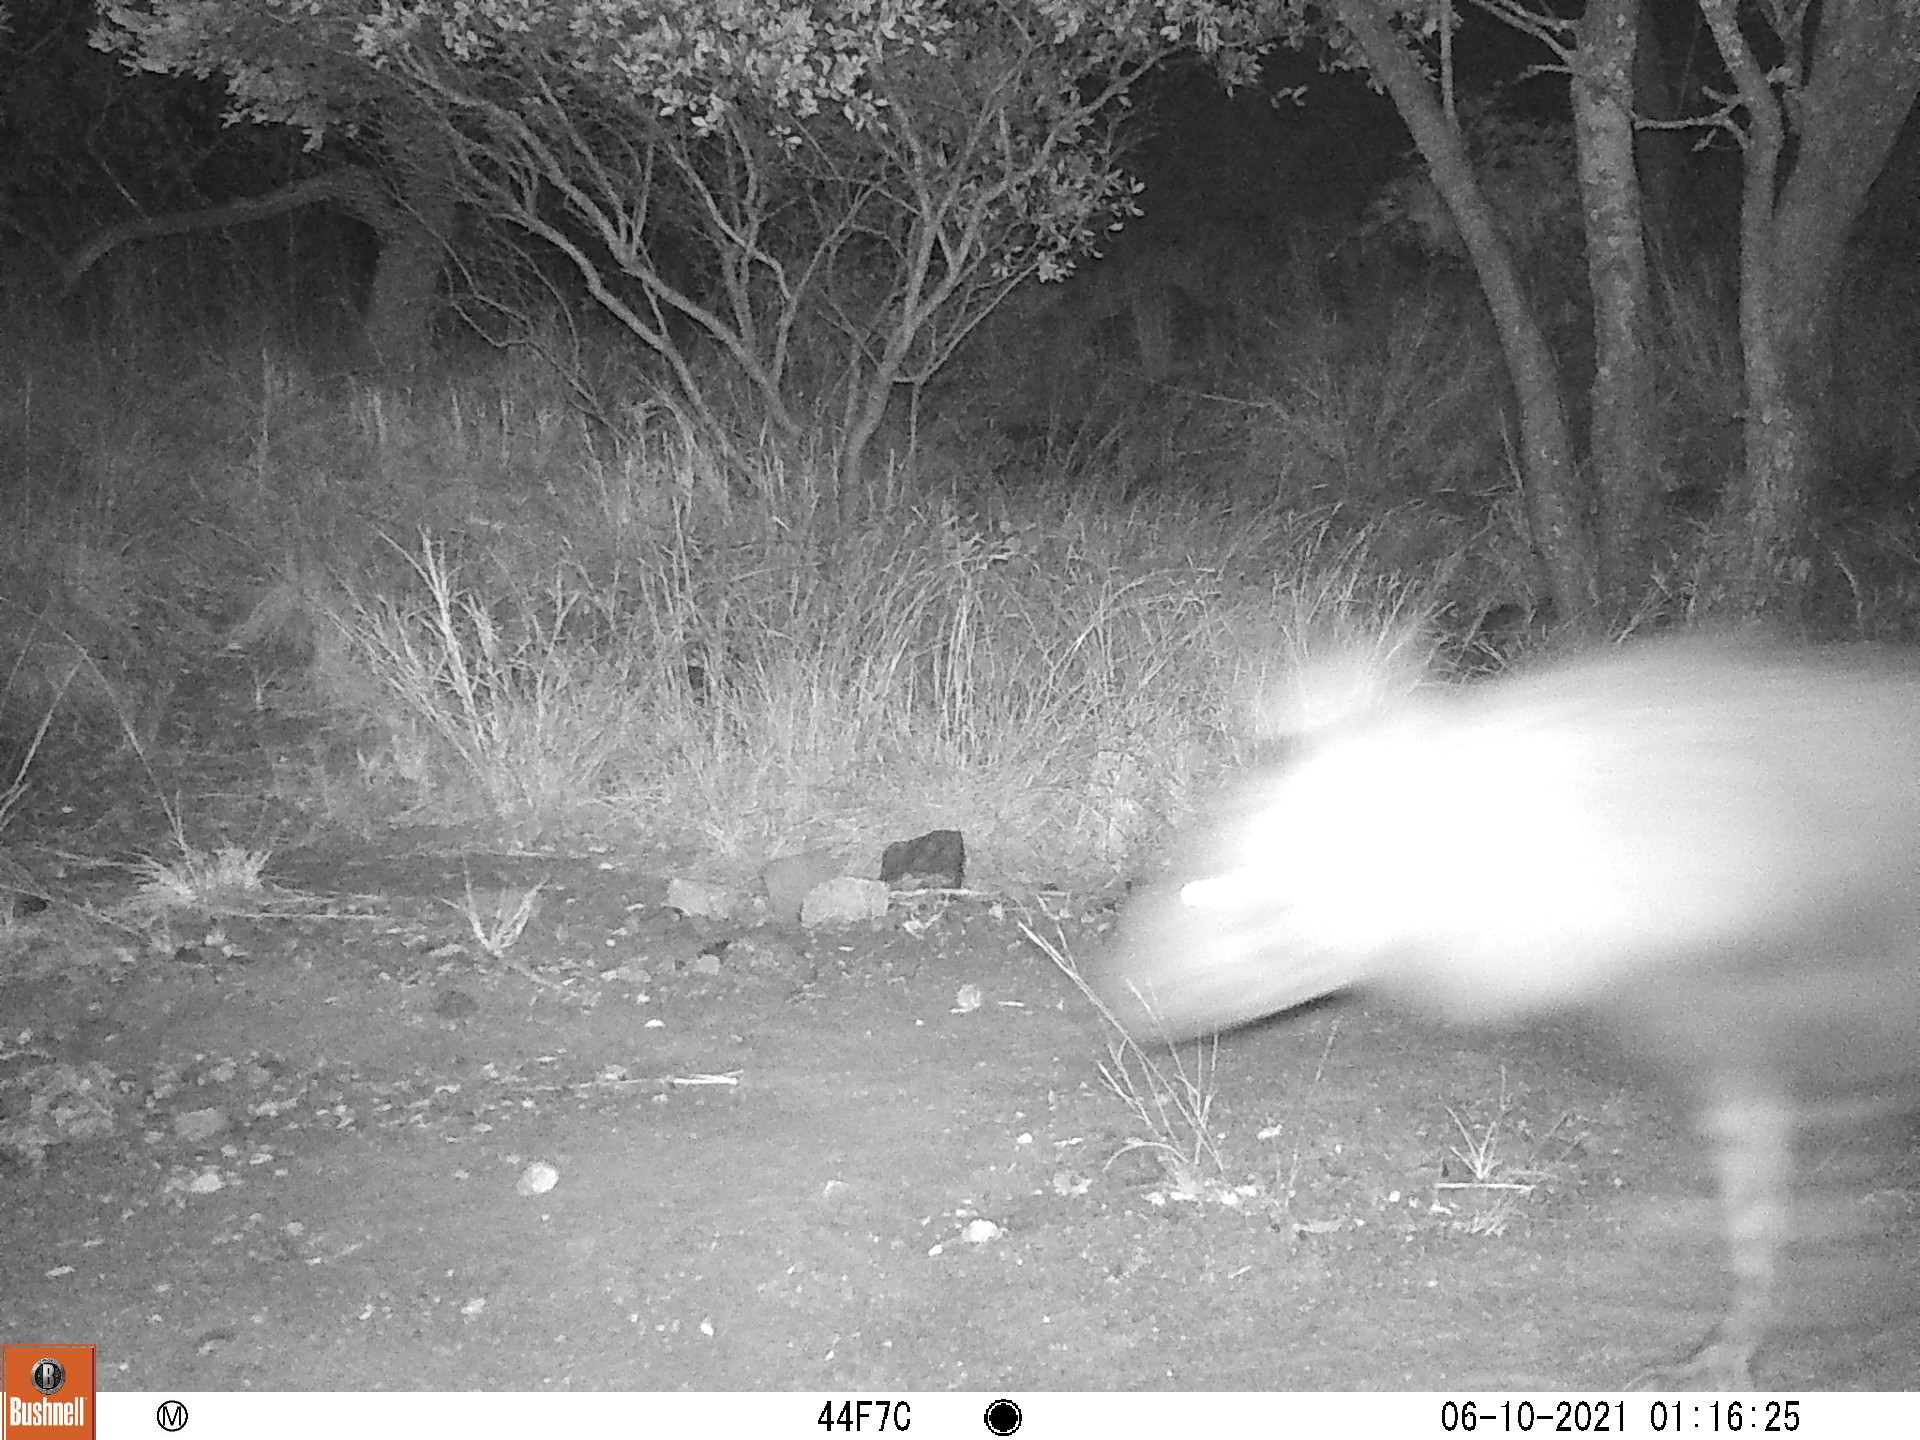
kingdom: Animalia
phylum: Chordata
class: Mammalia
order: Carnivora
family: Hyaenidae
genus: Hyaena
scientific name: Hyaena brunnea
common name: Brown hyena
